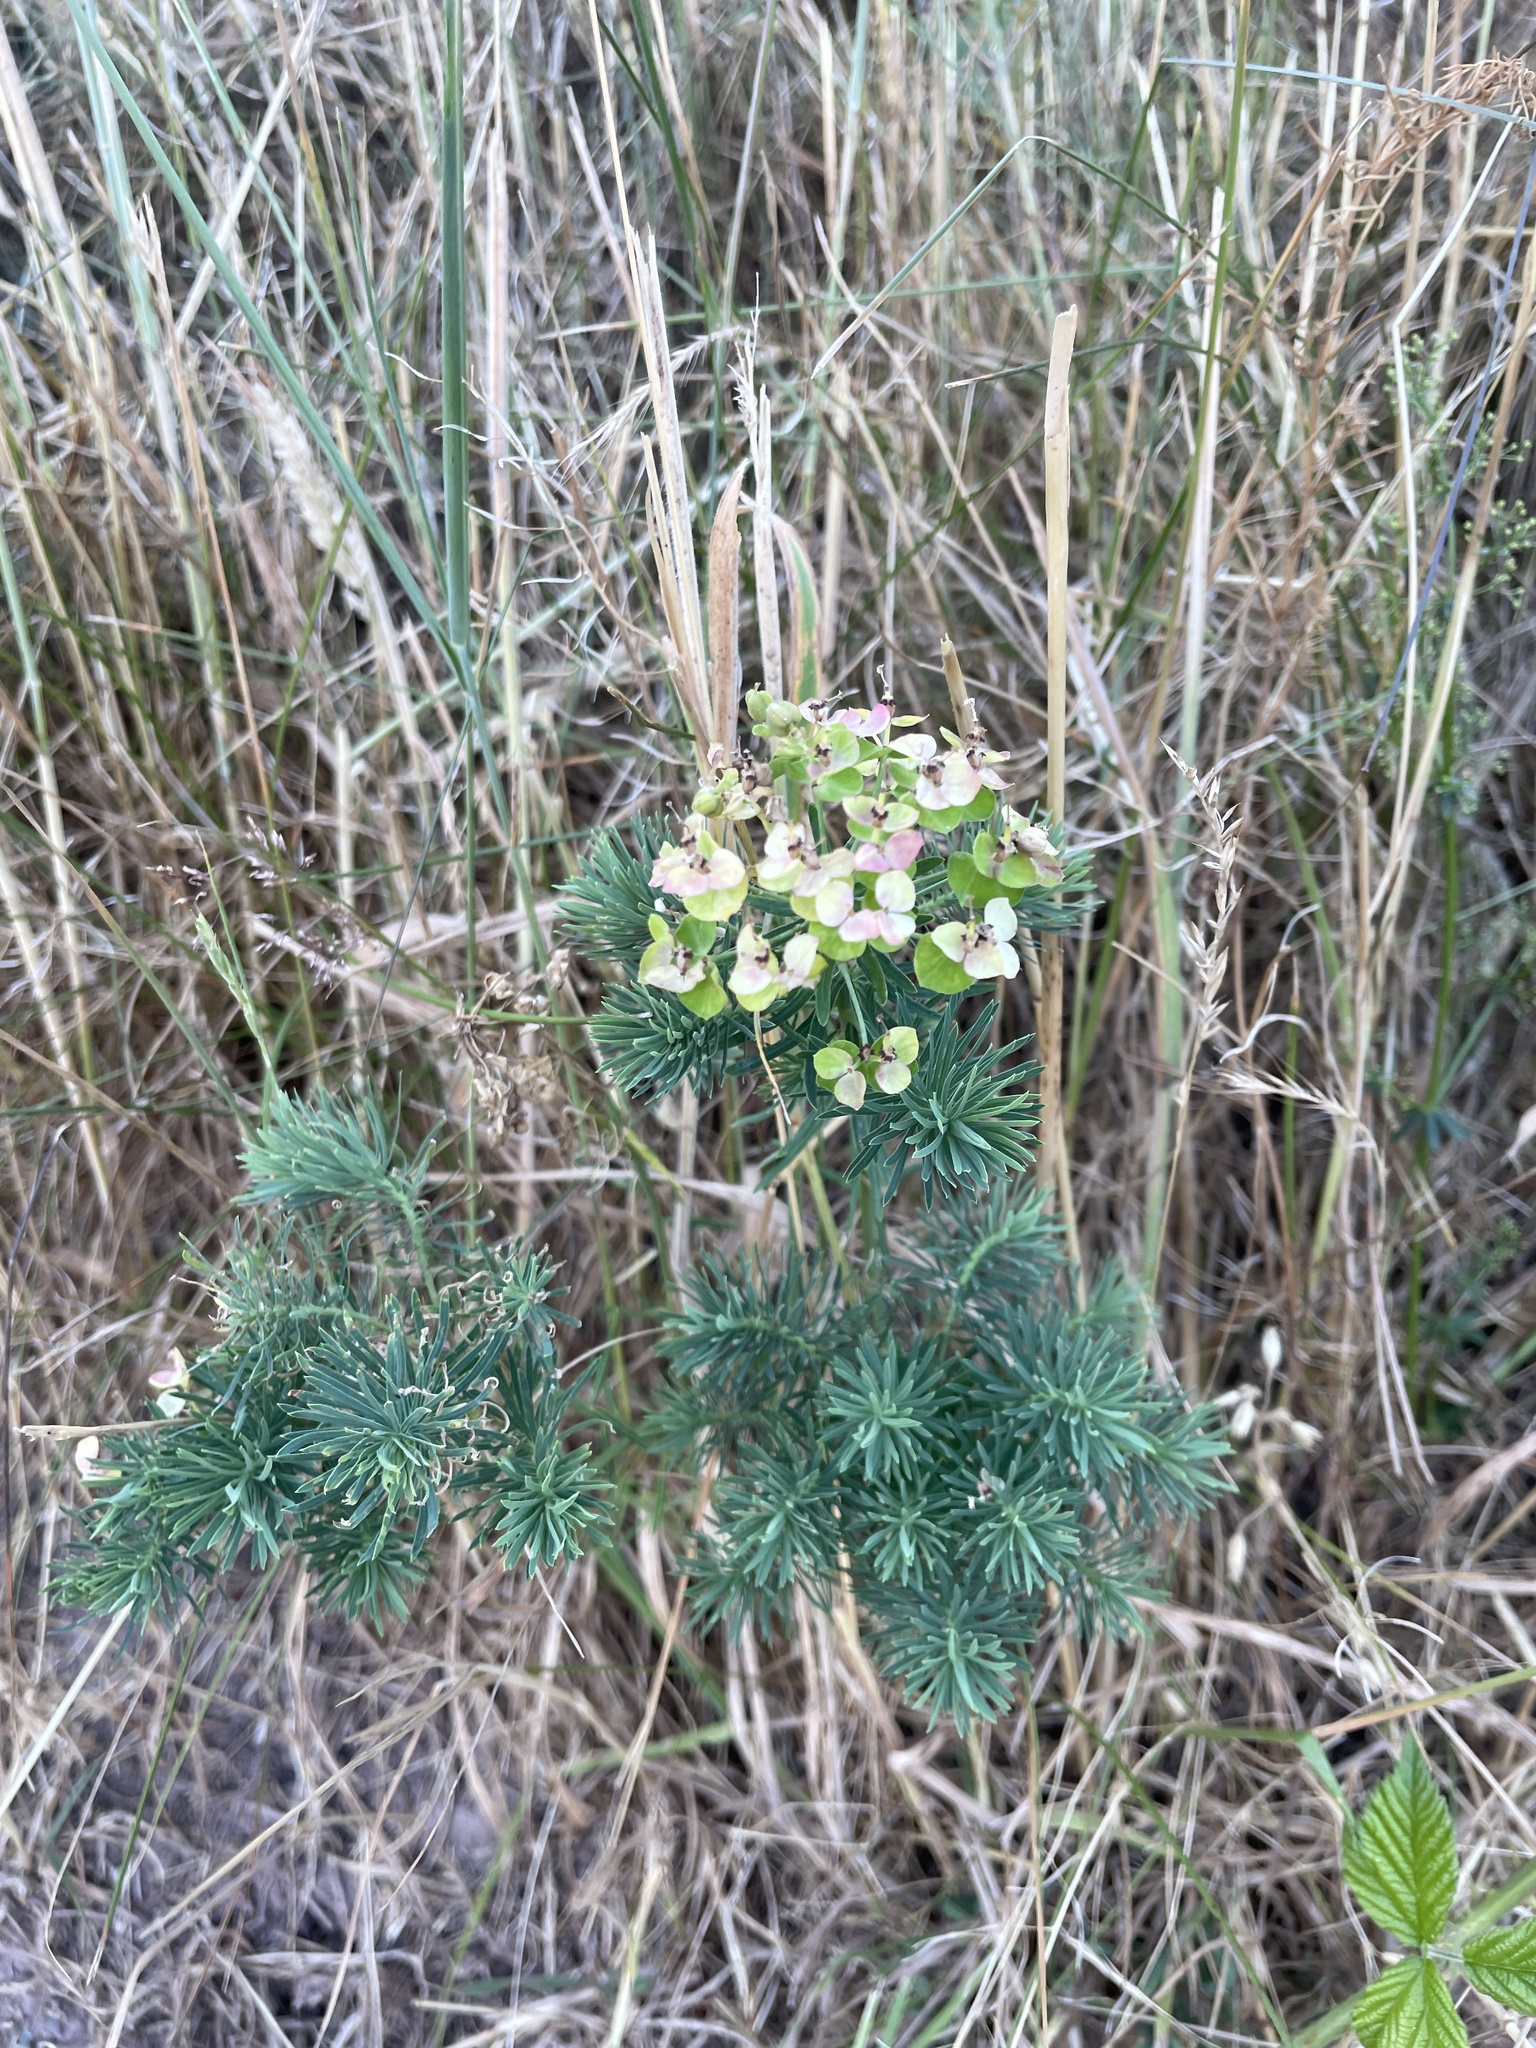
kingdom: Plantae
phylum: Tracheophyta
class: Magnoliopsida
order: Malpighiales
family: Euphorbiaceae
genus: Euphorbia
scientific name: Euphorbia cyparissias
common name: Cypress spurge
